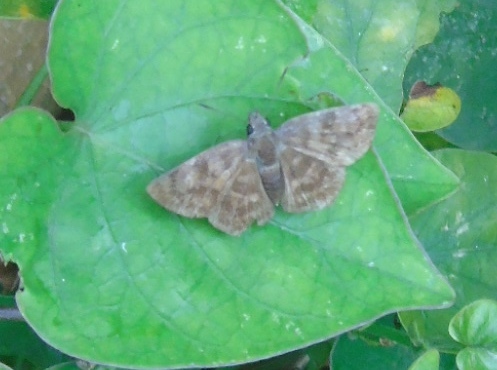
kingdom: Animalia
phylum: Arthropoda
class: Insecta
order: Lepidoptera
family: Hesperiidae
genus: Pellicia
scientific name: Pellicia costimacula
